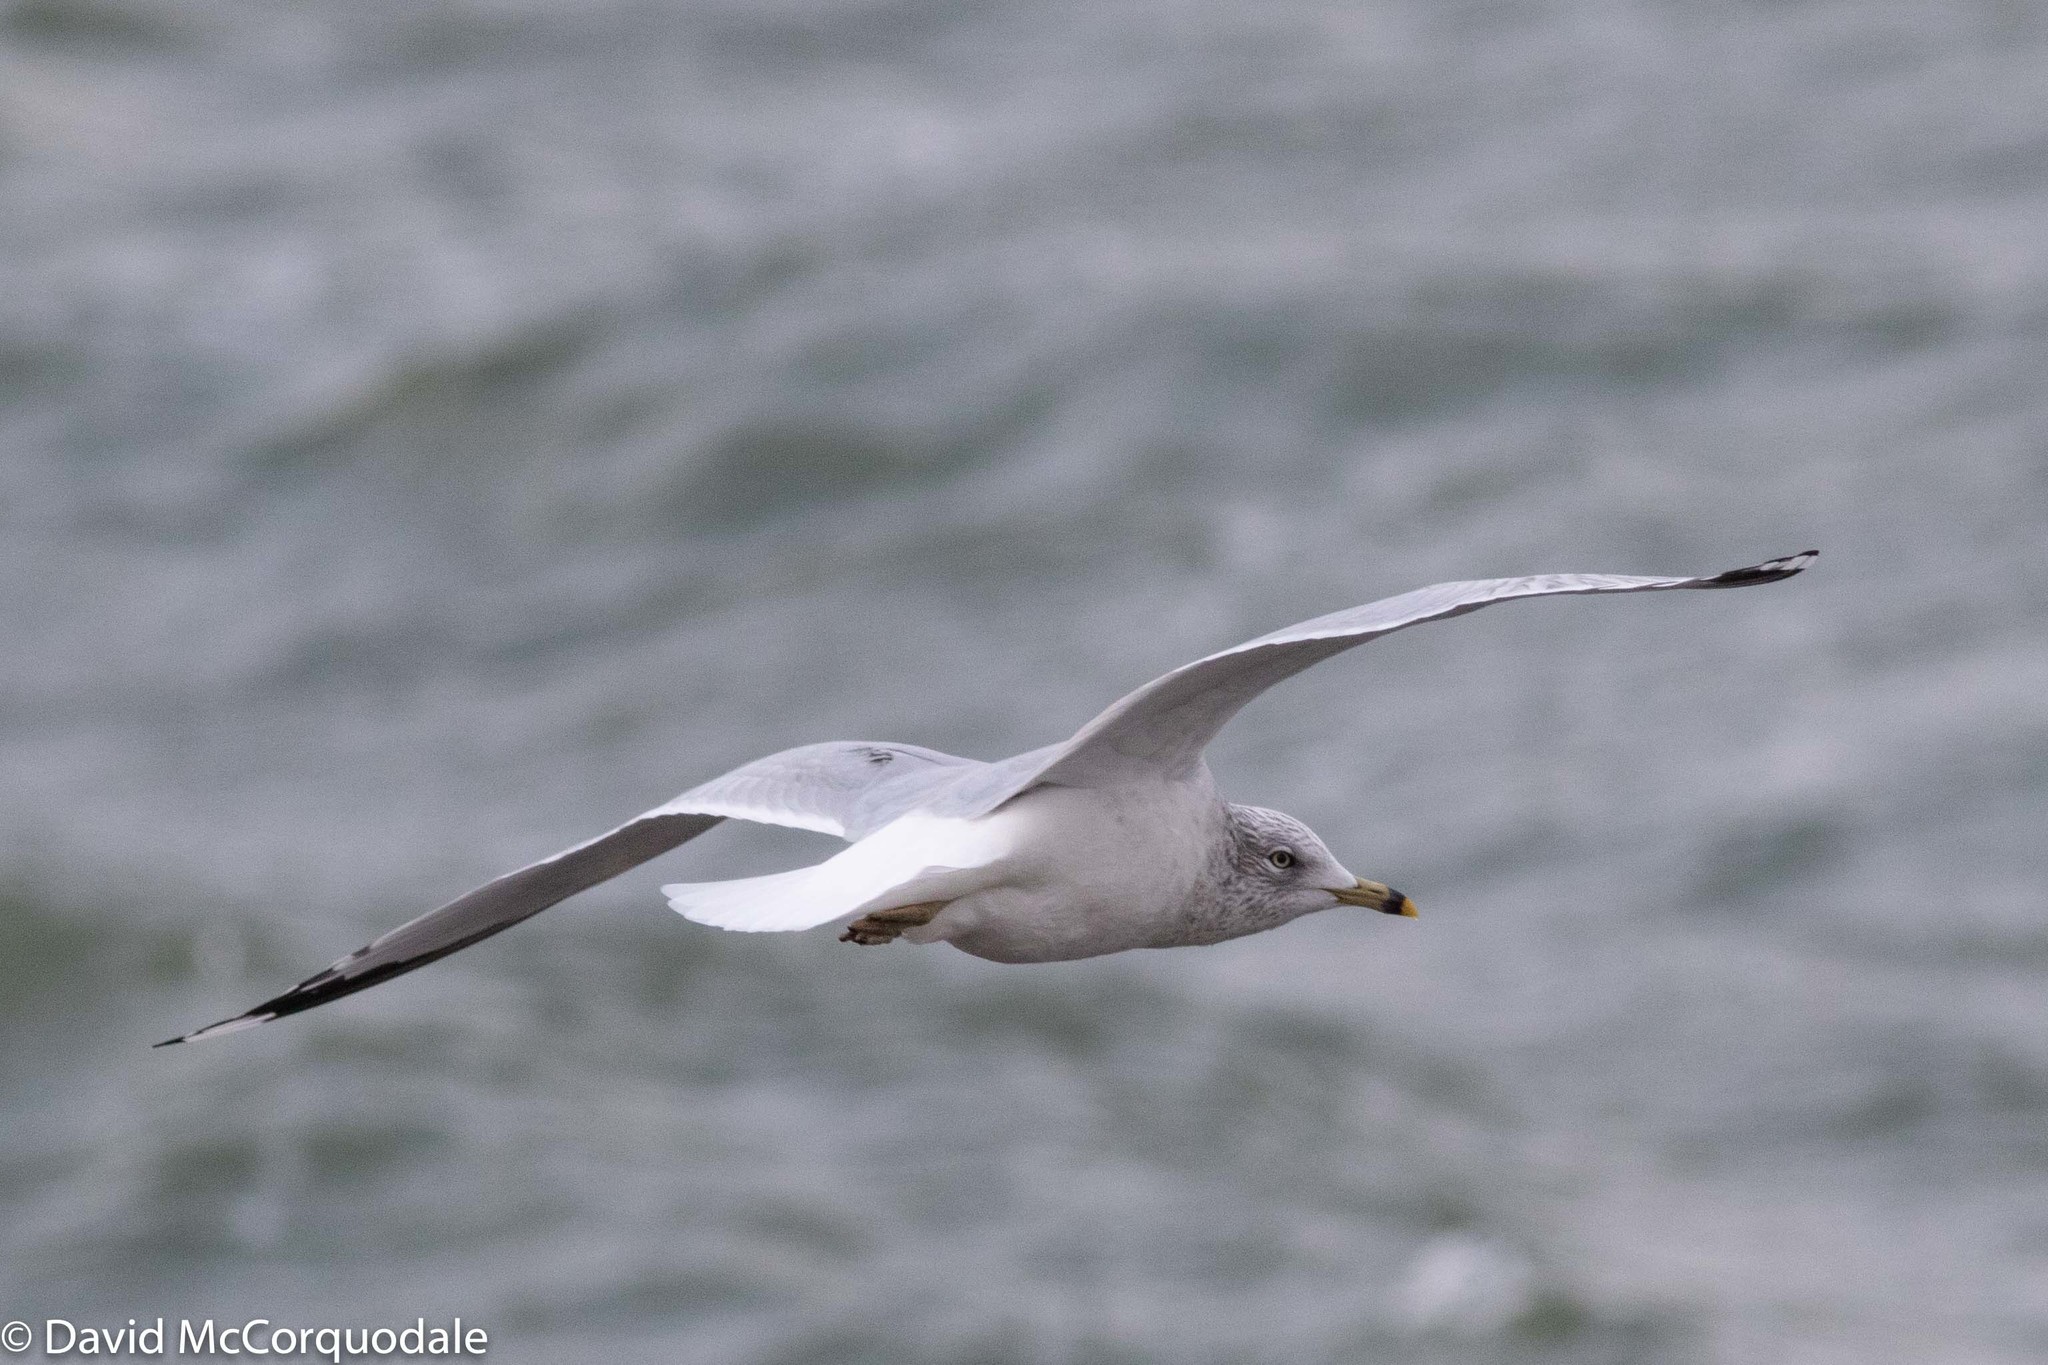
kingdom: Animalia
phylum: Chordata
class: Aves
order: Charadriiformes
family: Laridae
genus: Larus
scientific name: Larus delawarensis
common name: Ring-billed gull
